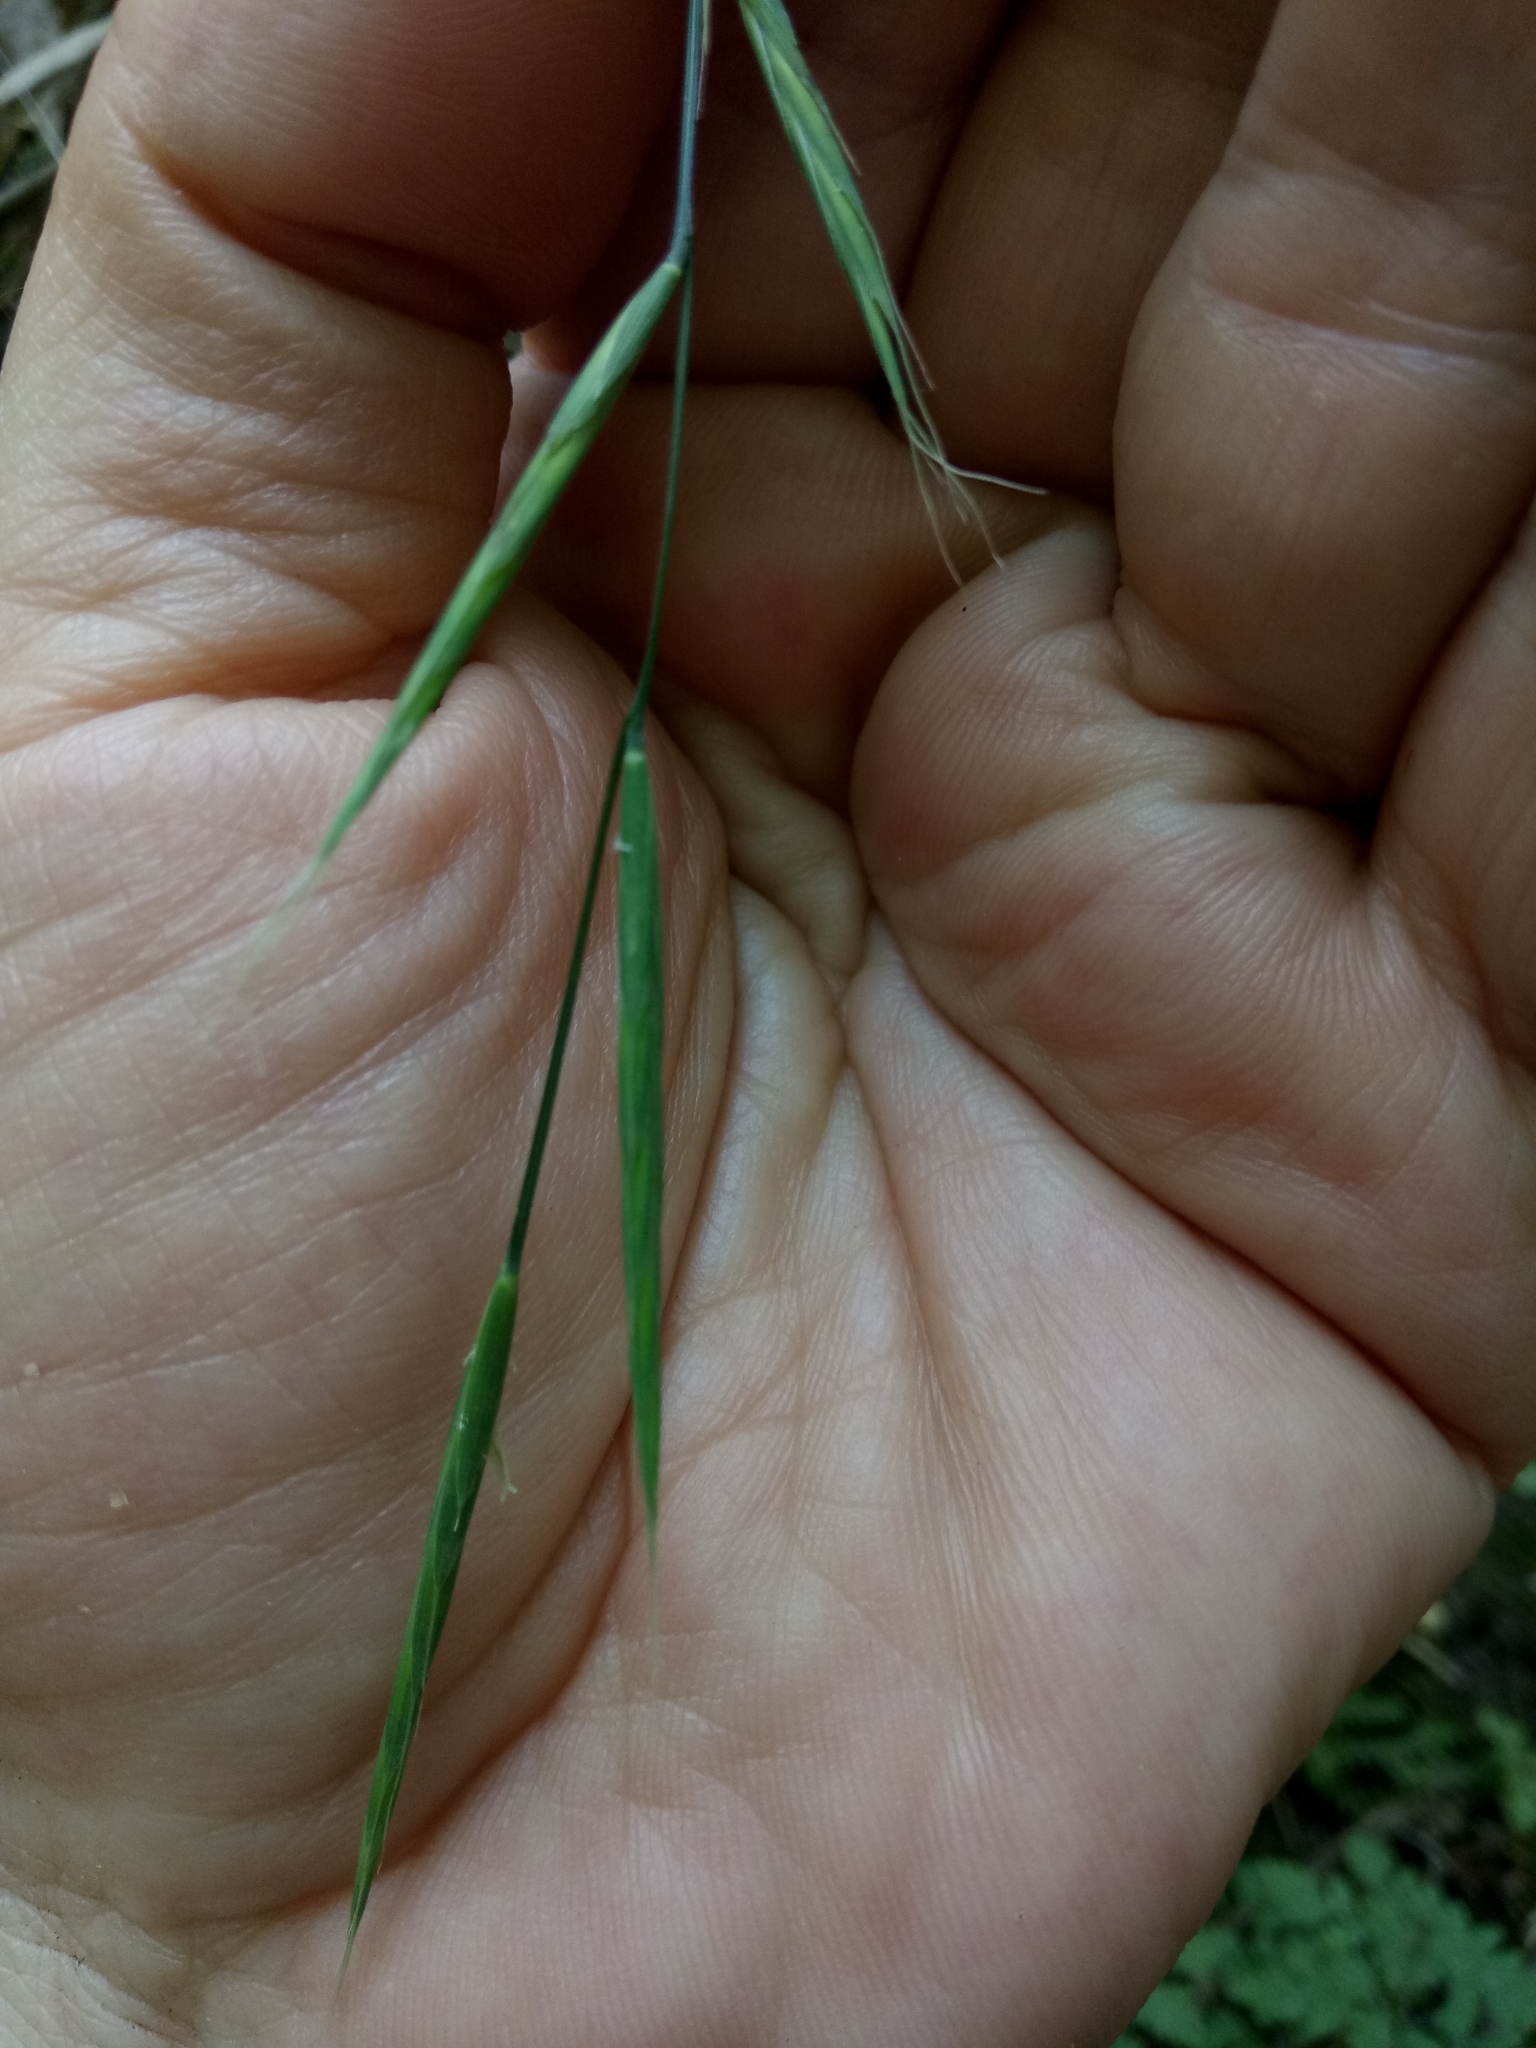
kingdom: Plantae
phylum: Tracheophyta
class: Liliopsida
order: Poales
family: Poaceae
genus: Brachypodium
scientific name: Brachypodium sylvaticum
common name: False-brome
